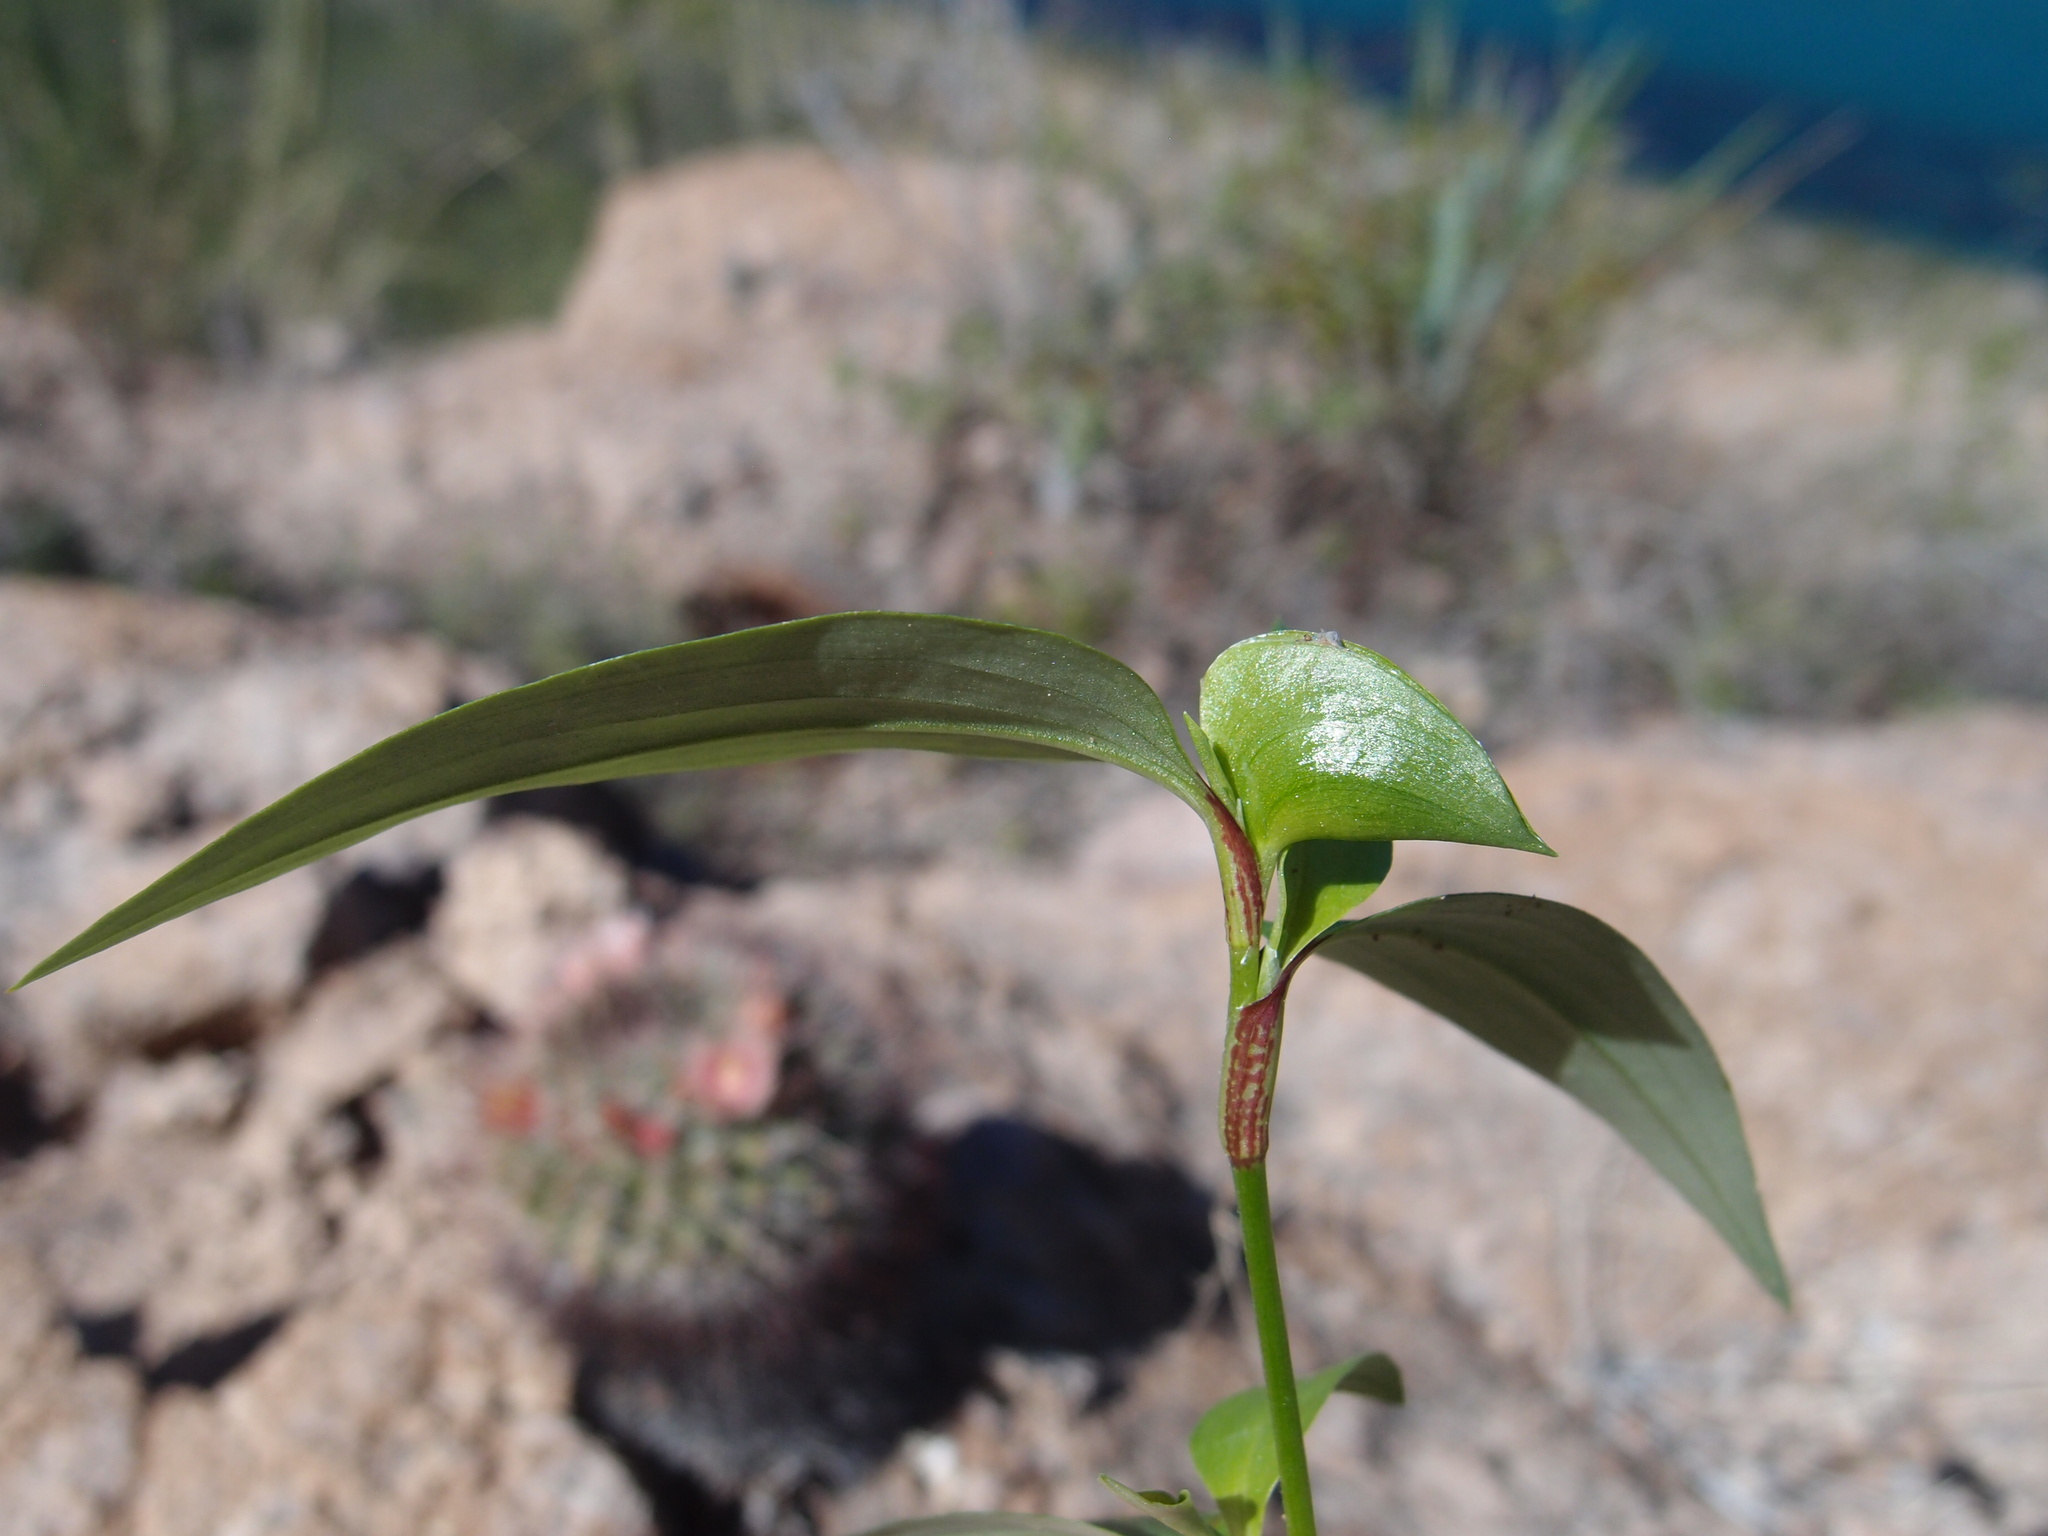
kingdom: Plantae
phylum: Tracheophyta
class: Liliopsida
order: Commelinales
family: Commelinaceae
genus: Commelina
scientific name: Commelina erecta
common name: Blousel blommetjie
